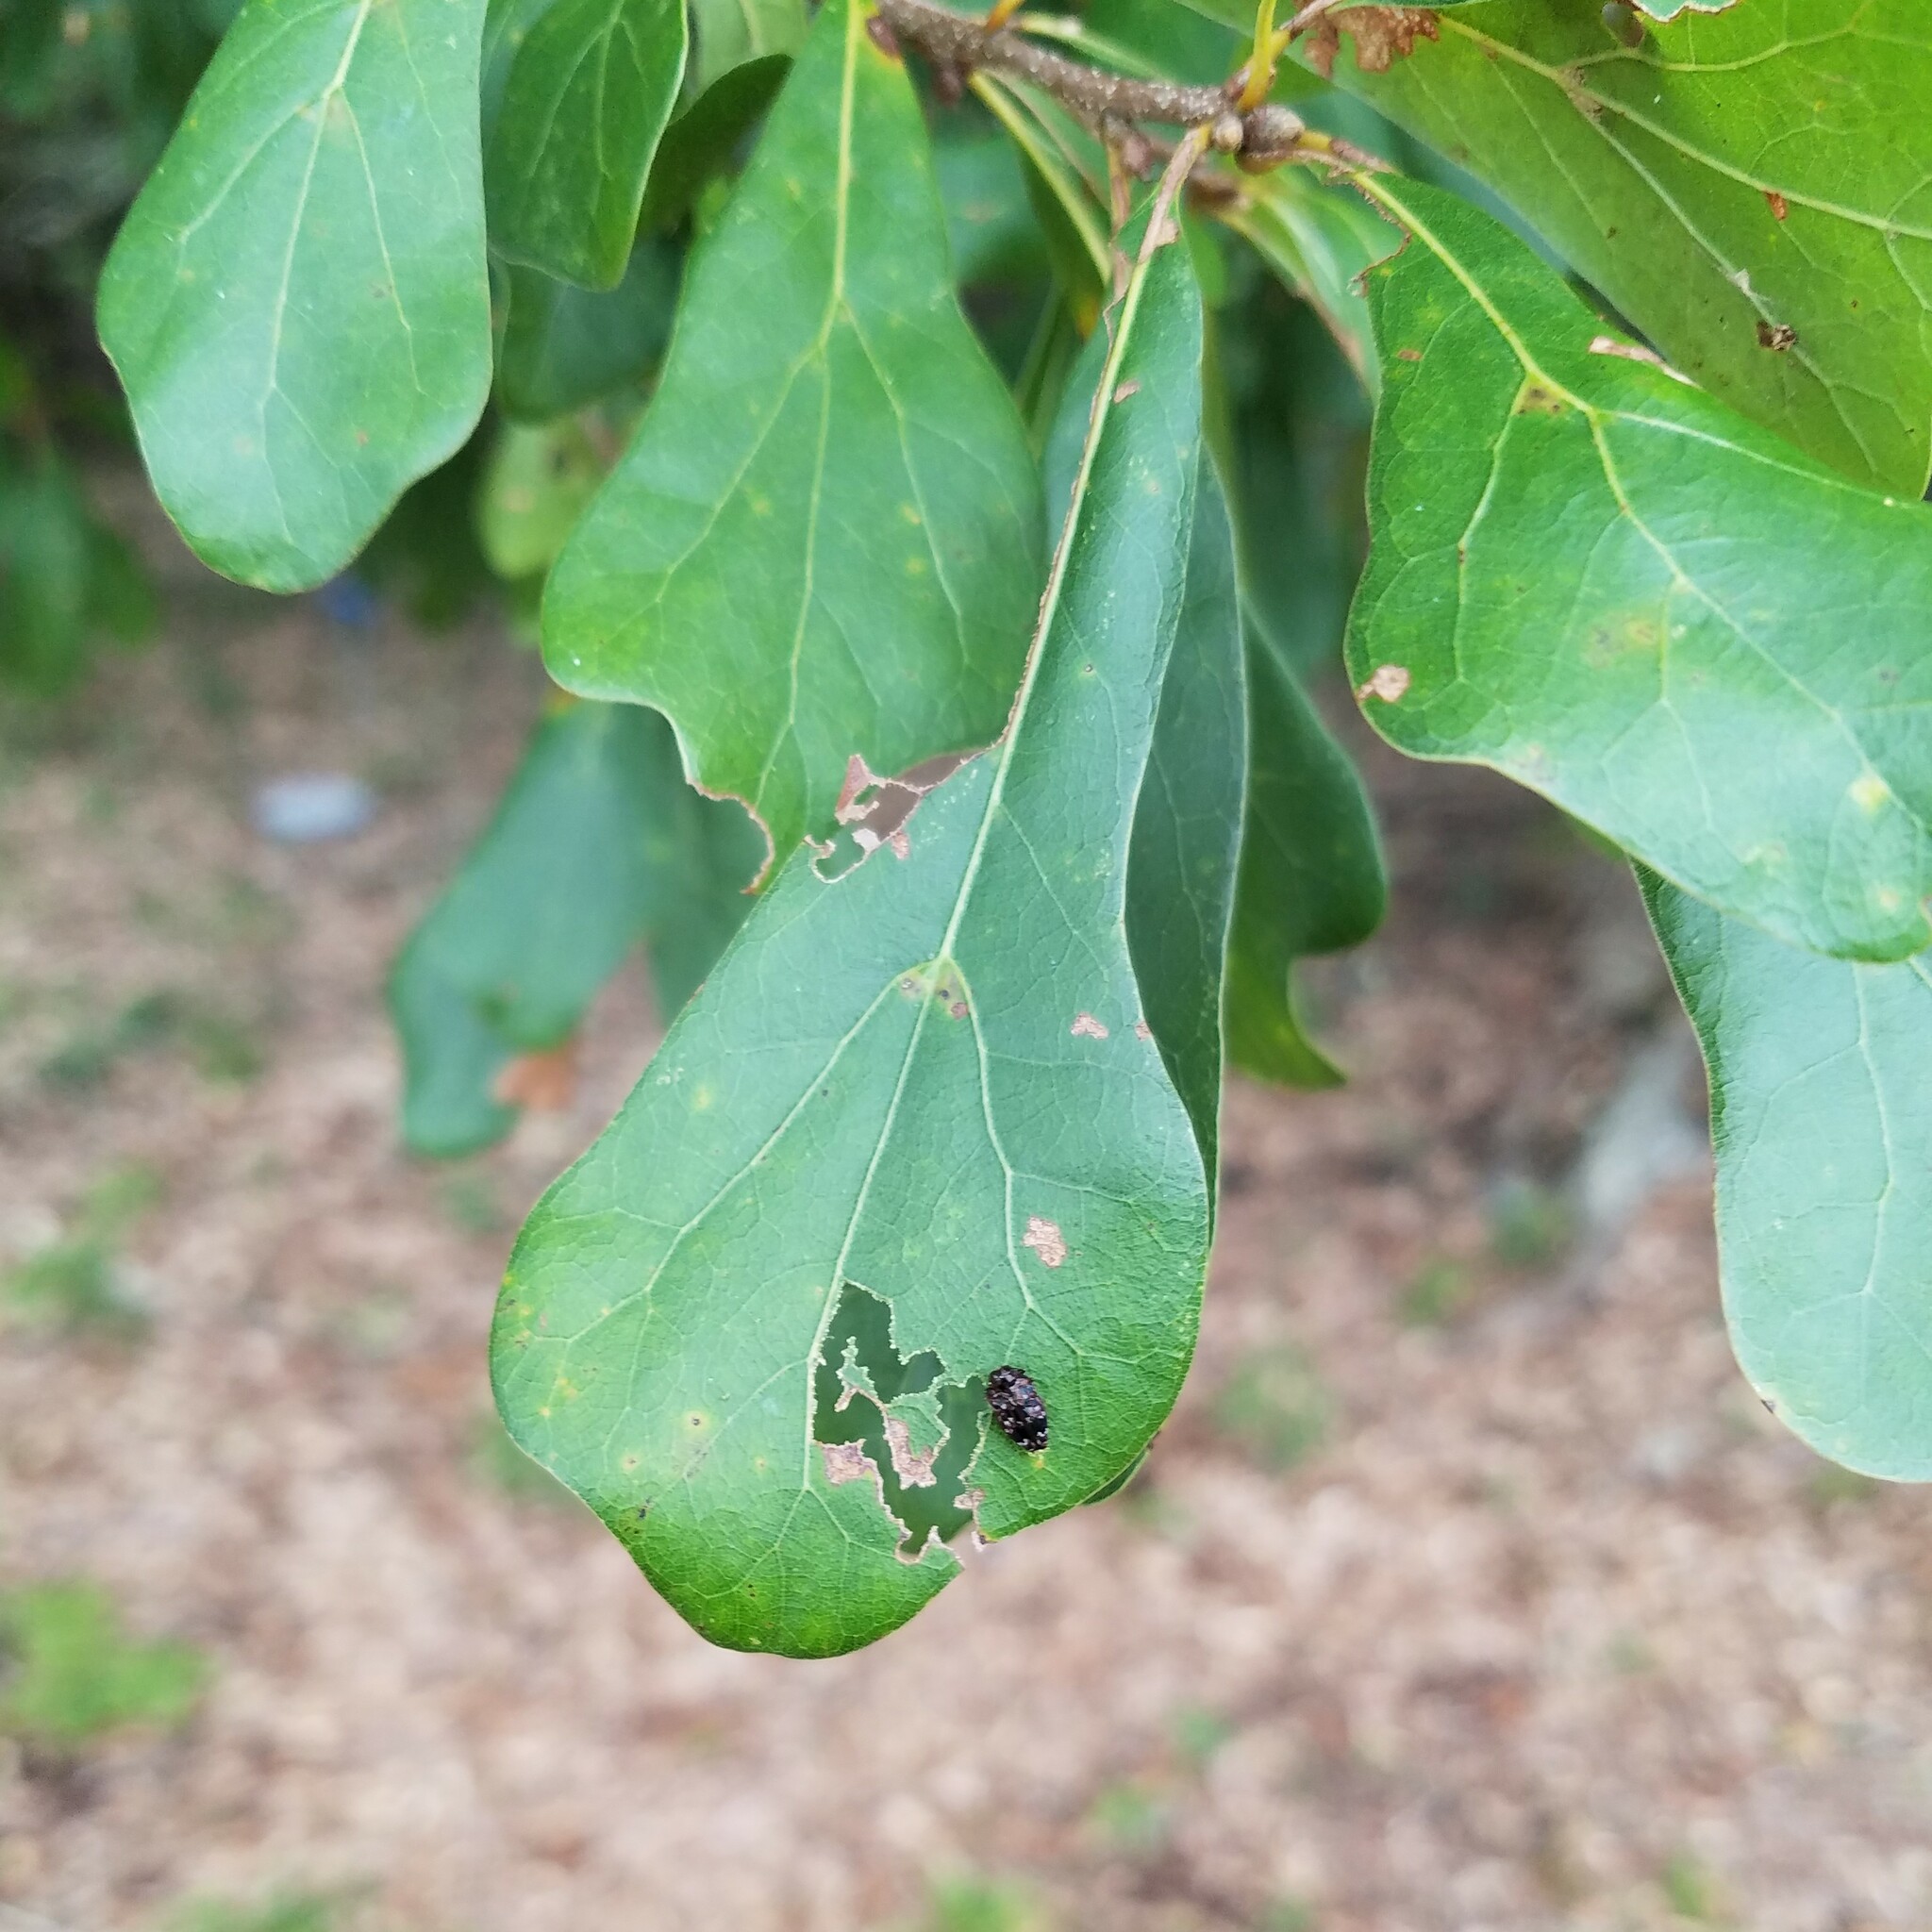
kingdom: Animalia
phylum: Arthropoda
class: Insecta
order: Coleoptera
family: Buprestidae
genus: Brachys
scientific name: Brachys ovatus
